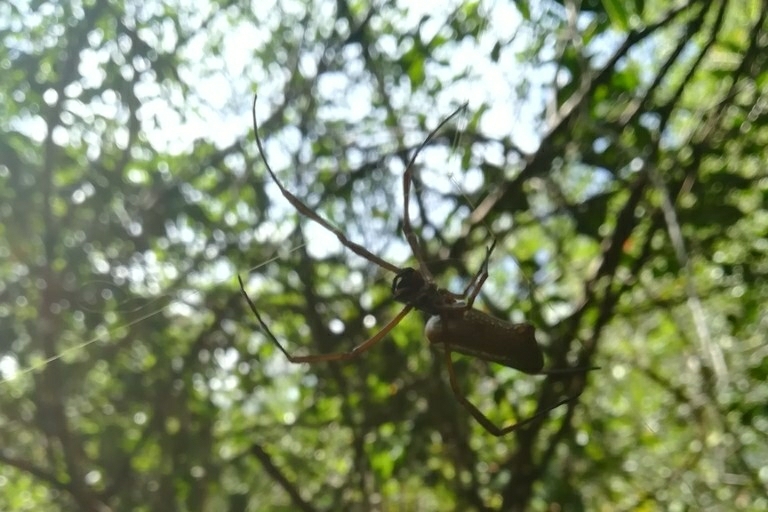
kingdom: Animalia
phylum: Arthropoda
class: Arachnida
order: Araneae
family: Araneidae
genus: Nephila
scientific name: Nephila cornuta
